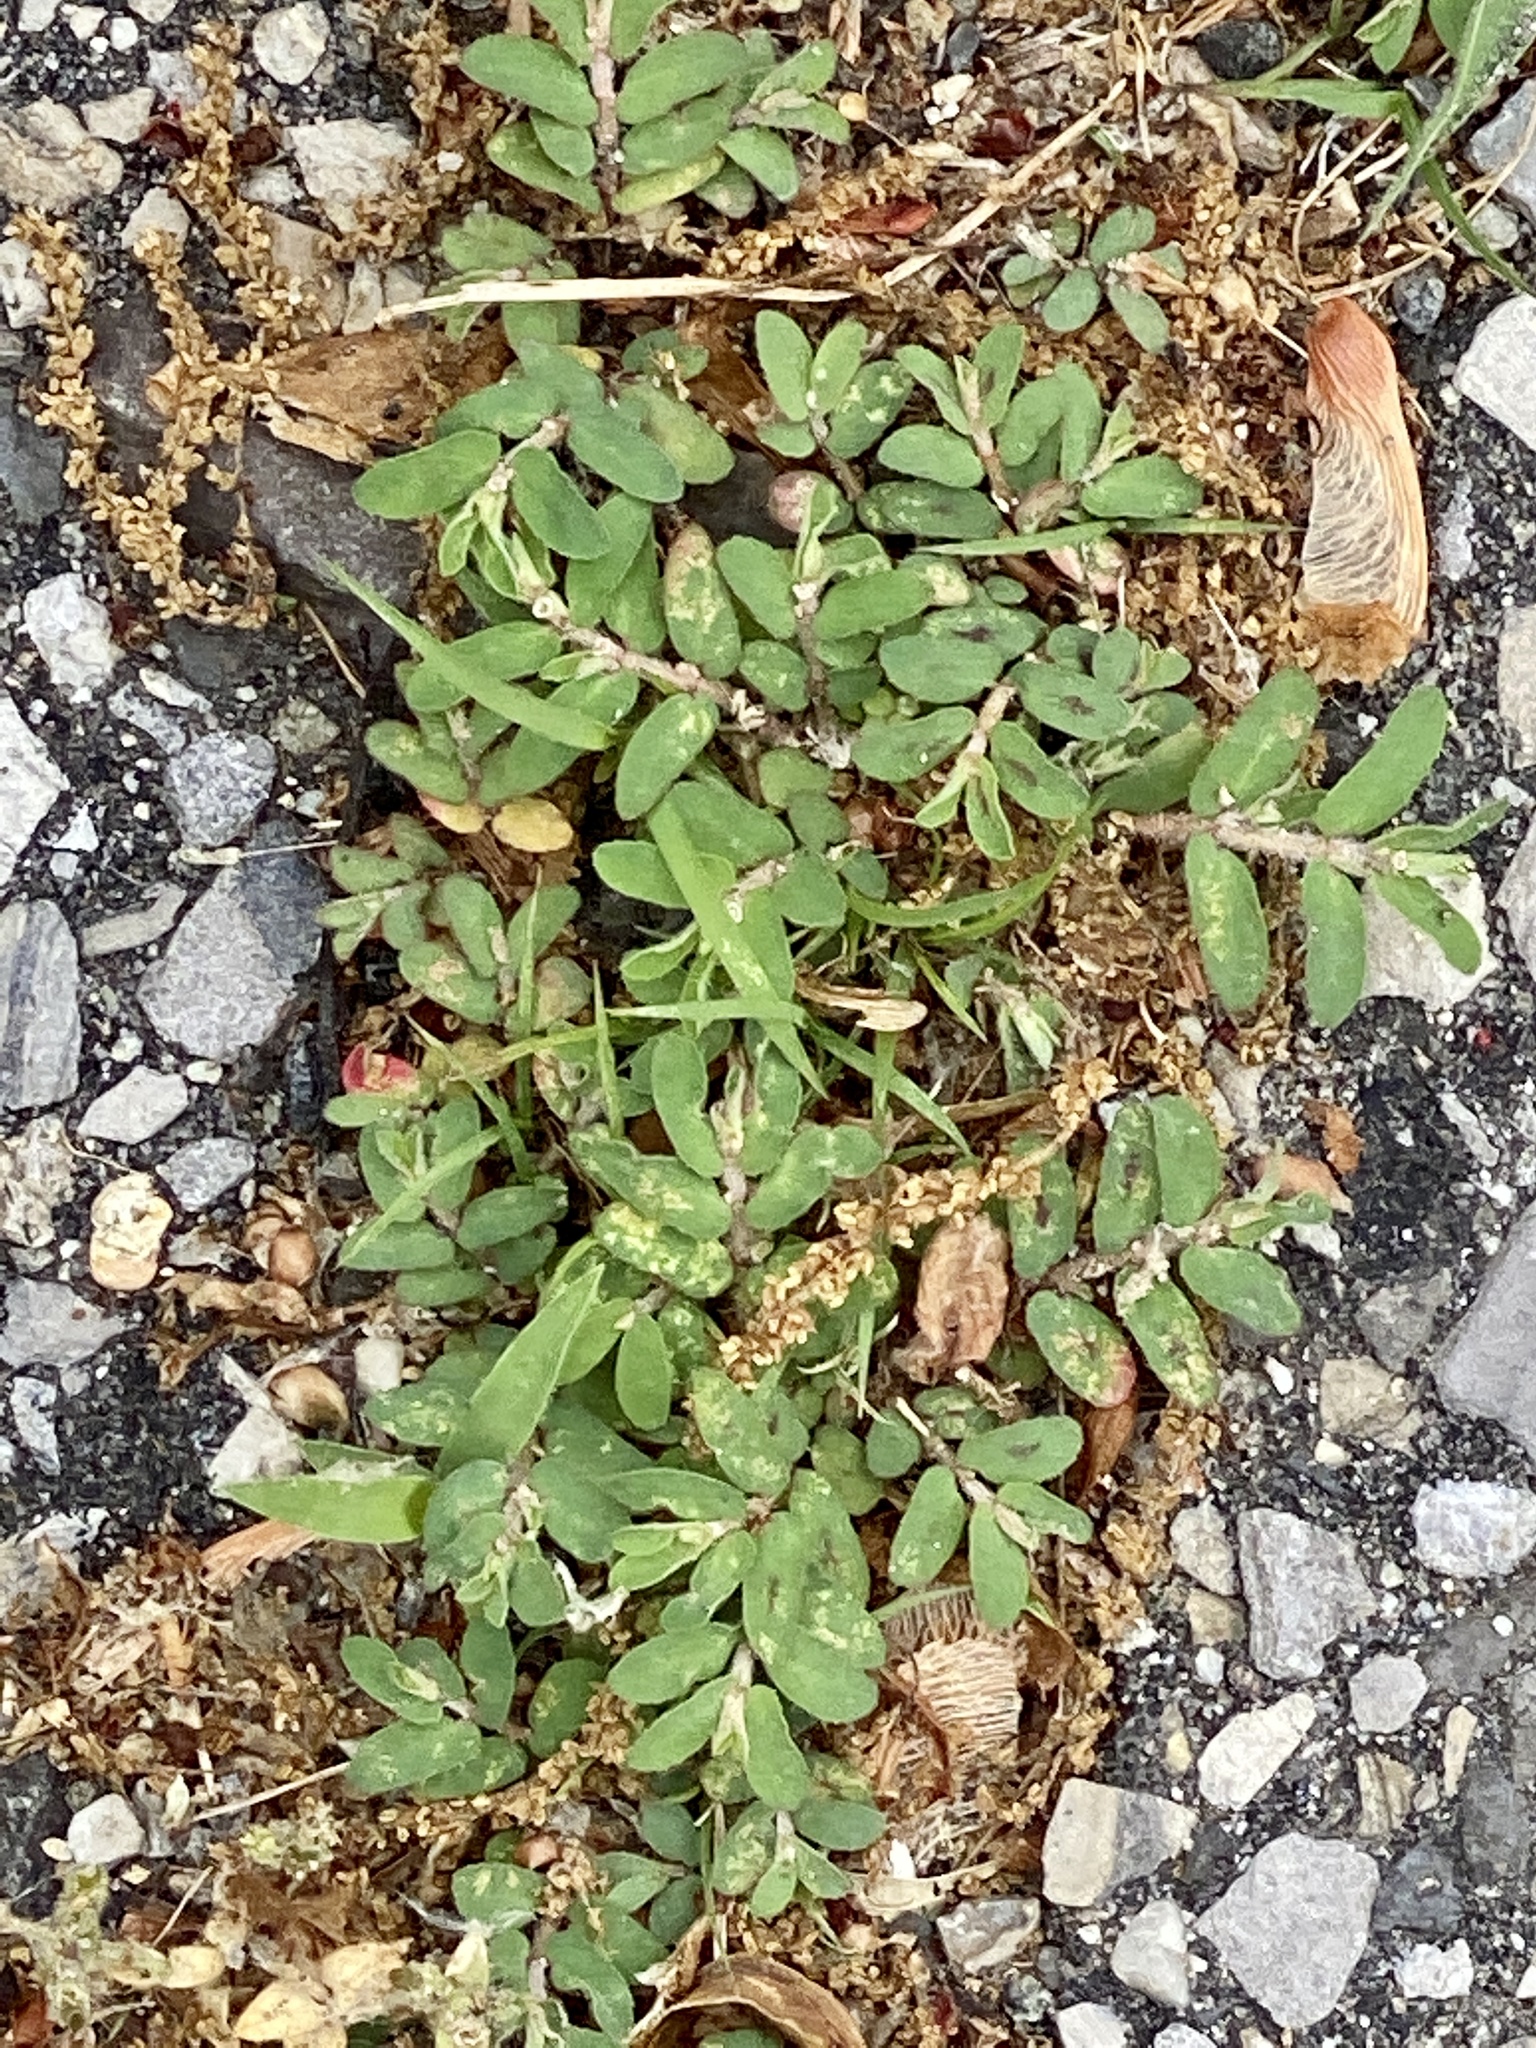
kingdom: Plantae
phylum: Tracheophyta
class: Magnoliopsida
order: Malpighiales
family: Euphorbiaceae
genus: Euphorbia
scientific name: Euphorbia maculata
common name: Spotted spurge
